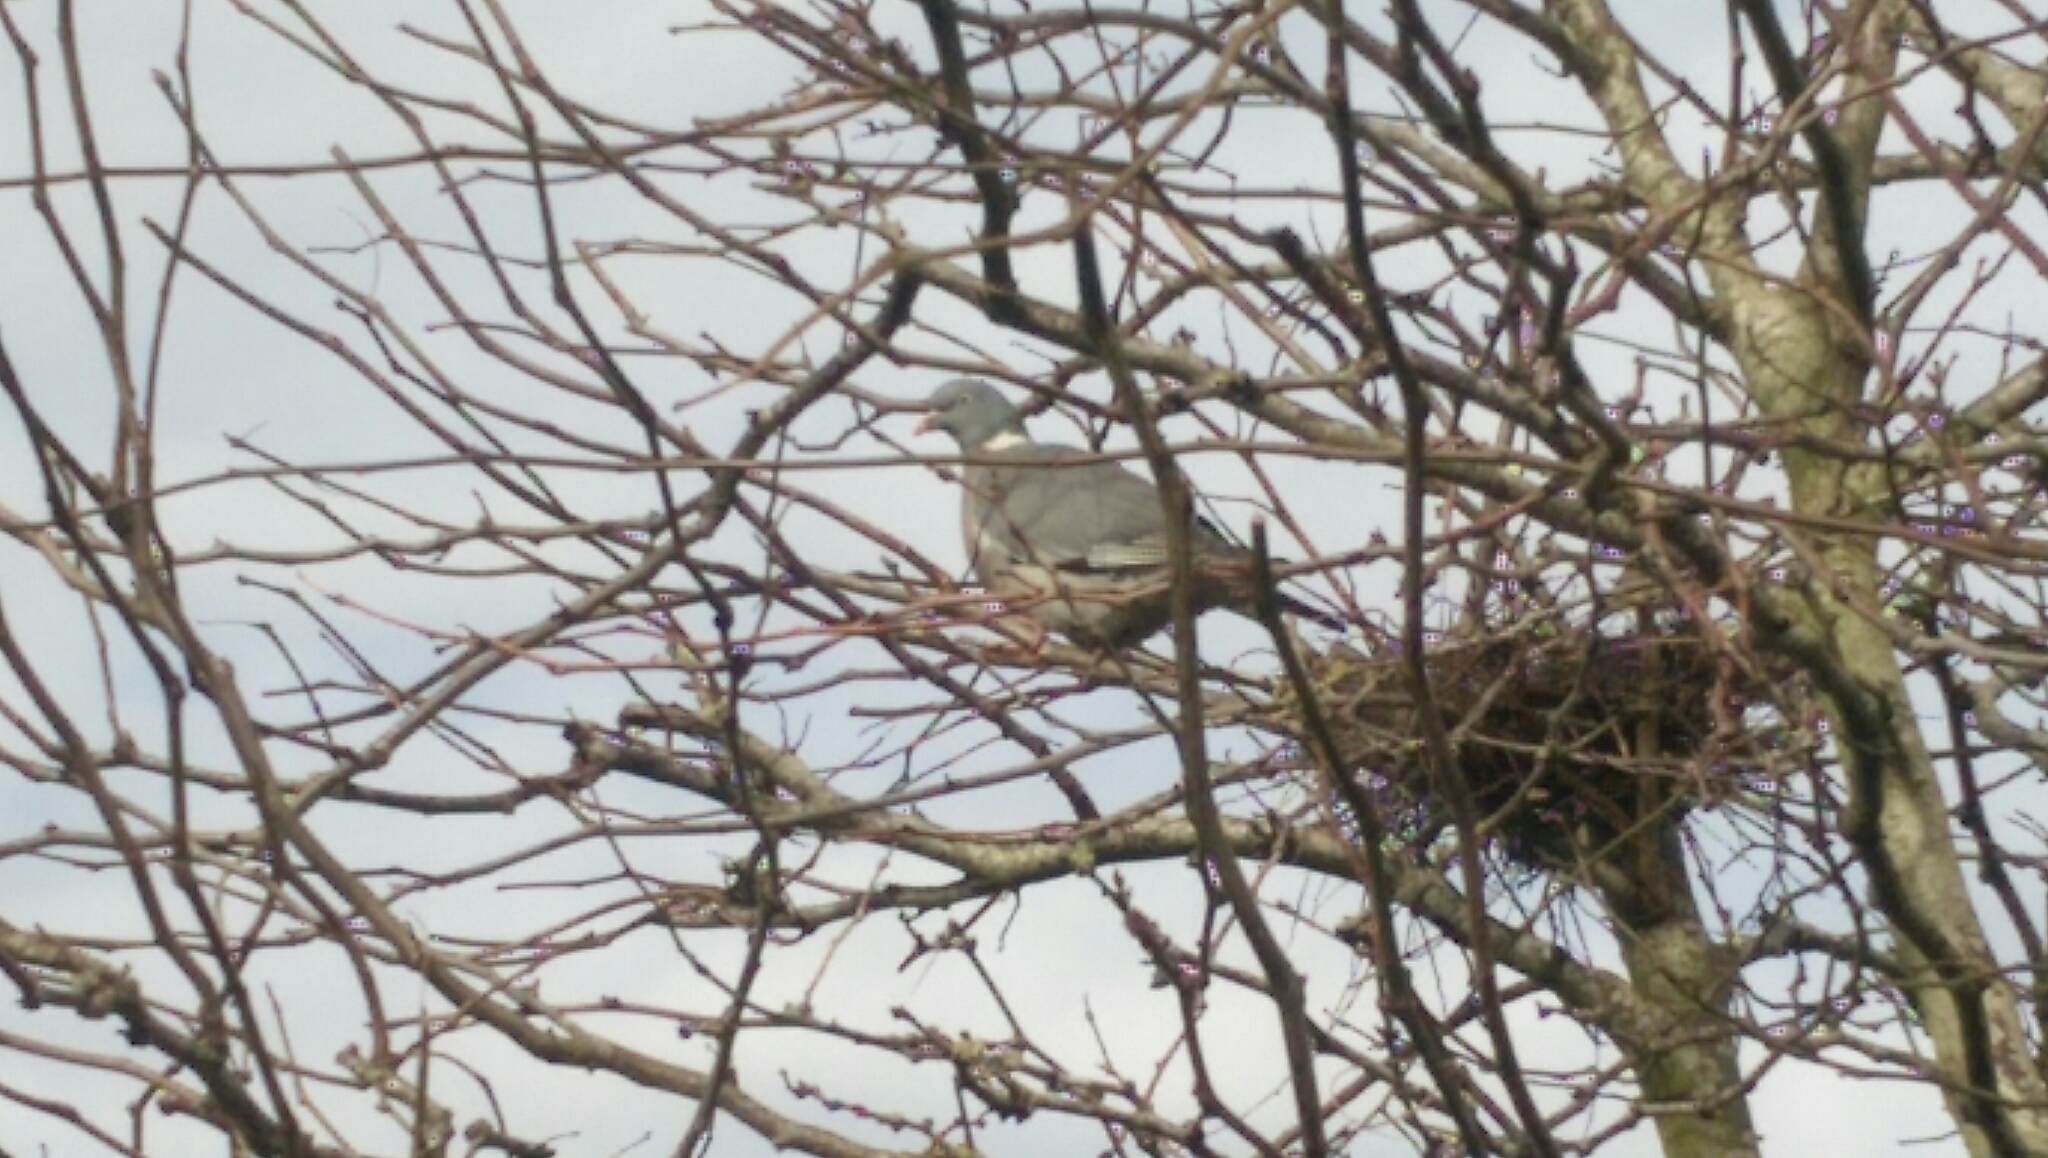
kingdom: Animalia
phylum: Chordata
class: Aves
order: Columbiformes
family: Columbidae
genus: Columba
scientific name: Columba palumbus
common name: Common wood pigeon
